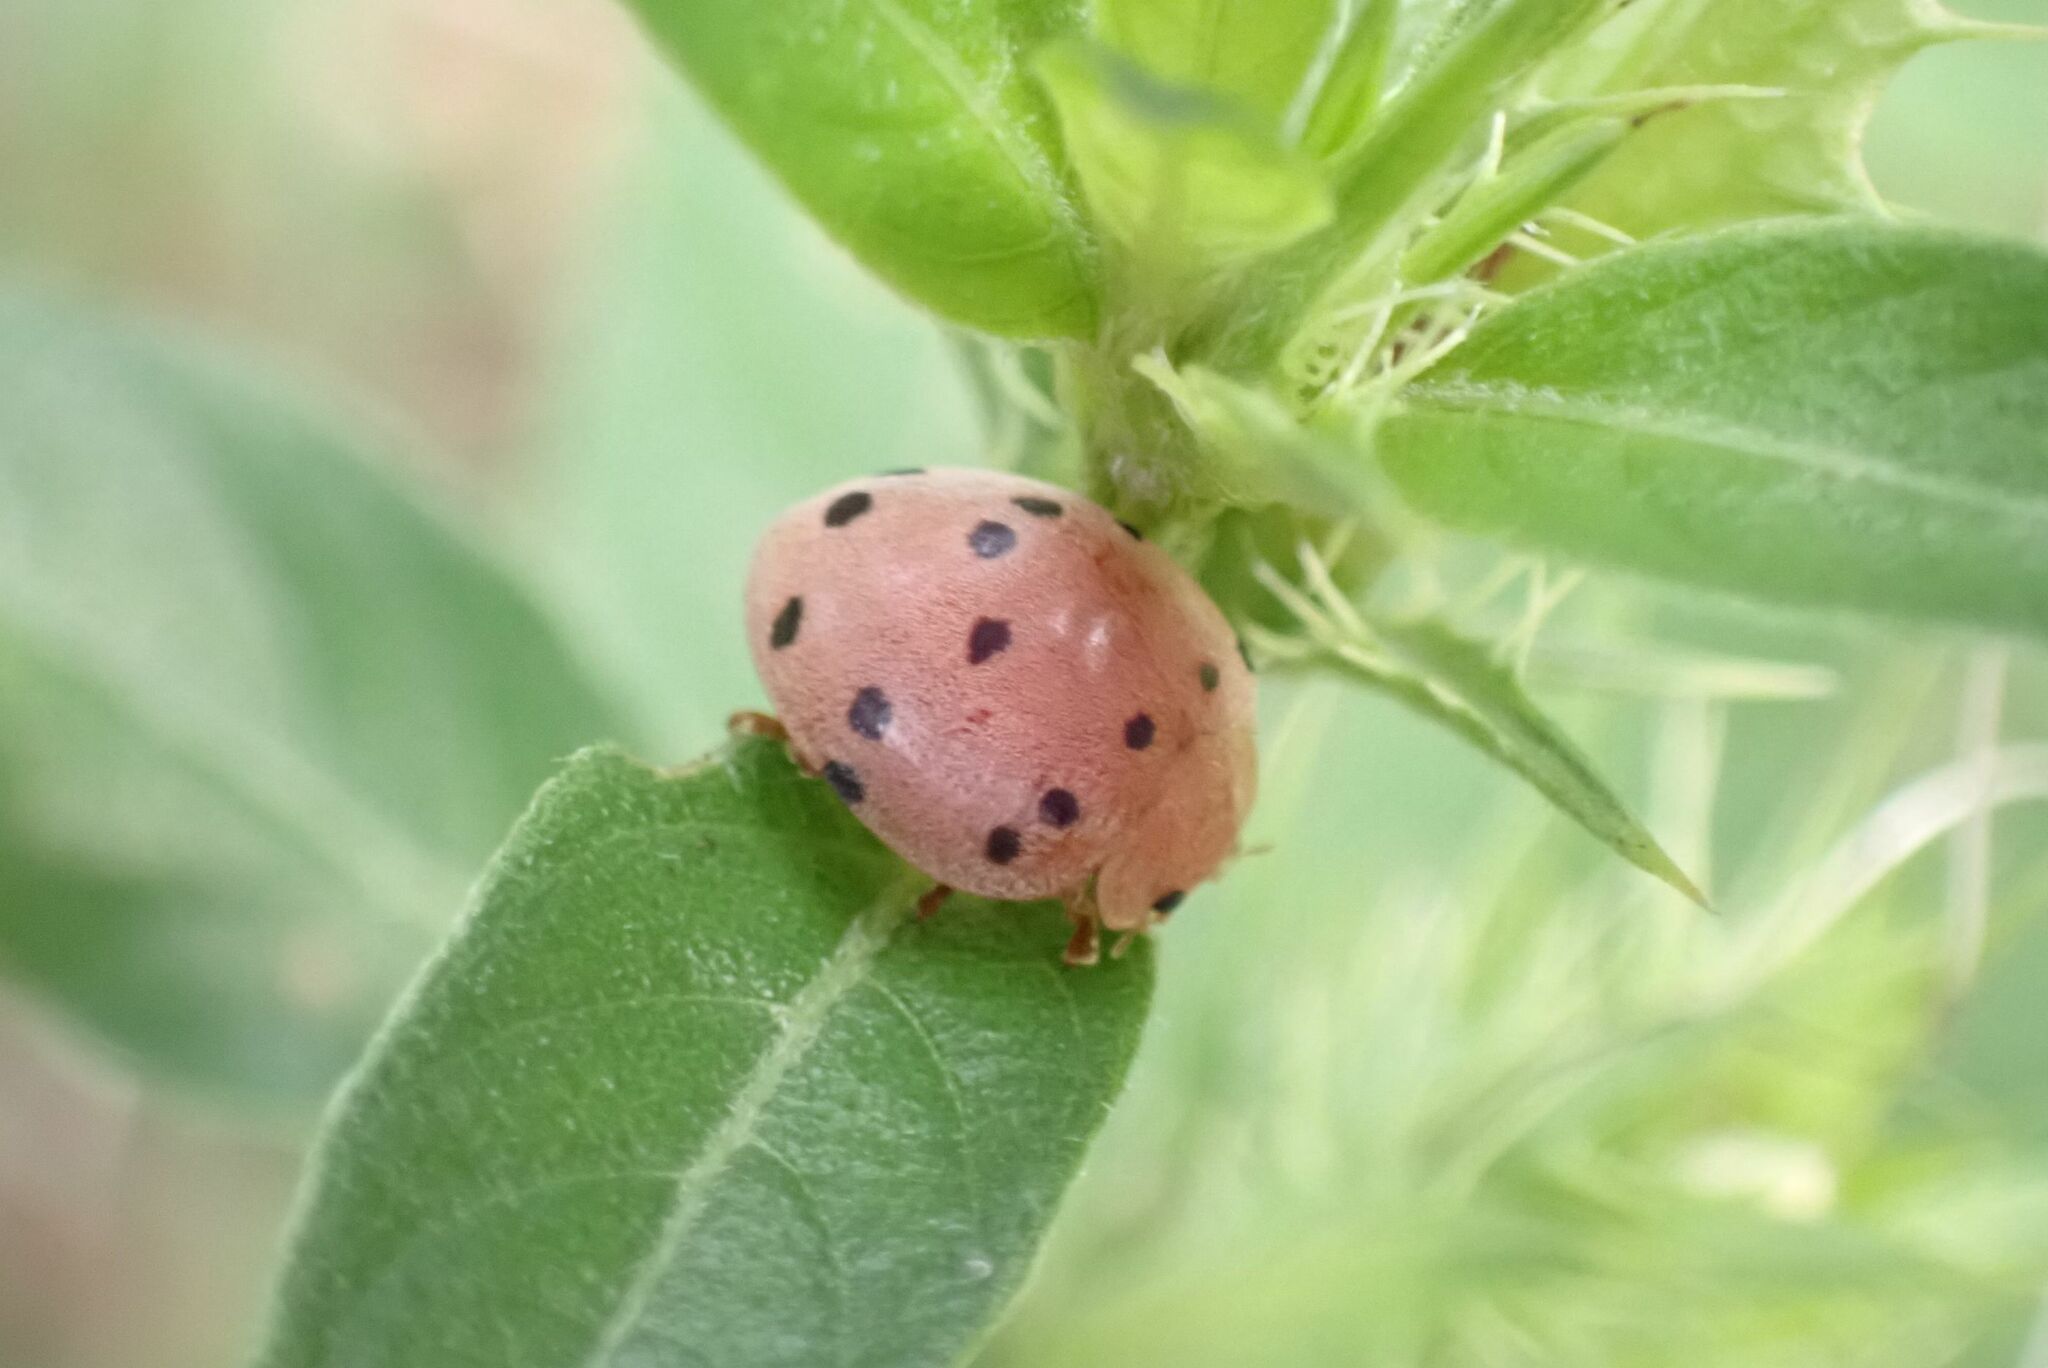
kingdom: Animalia
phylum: Arthropoda
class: Insecta
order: Coleoptera
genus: Solanophila
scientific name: Solanophila
